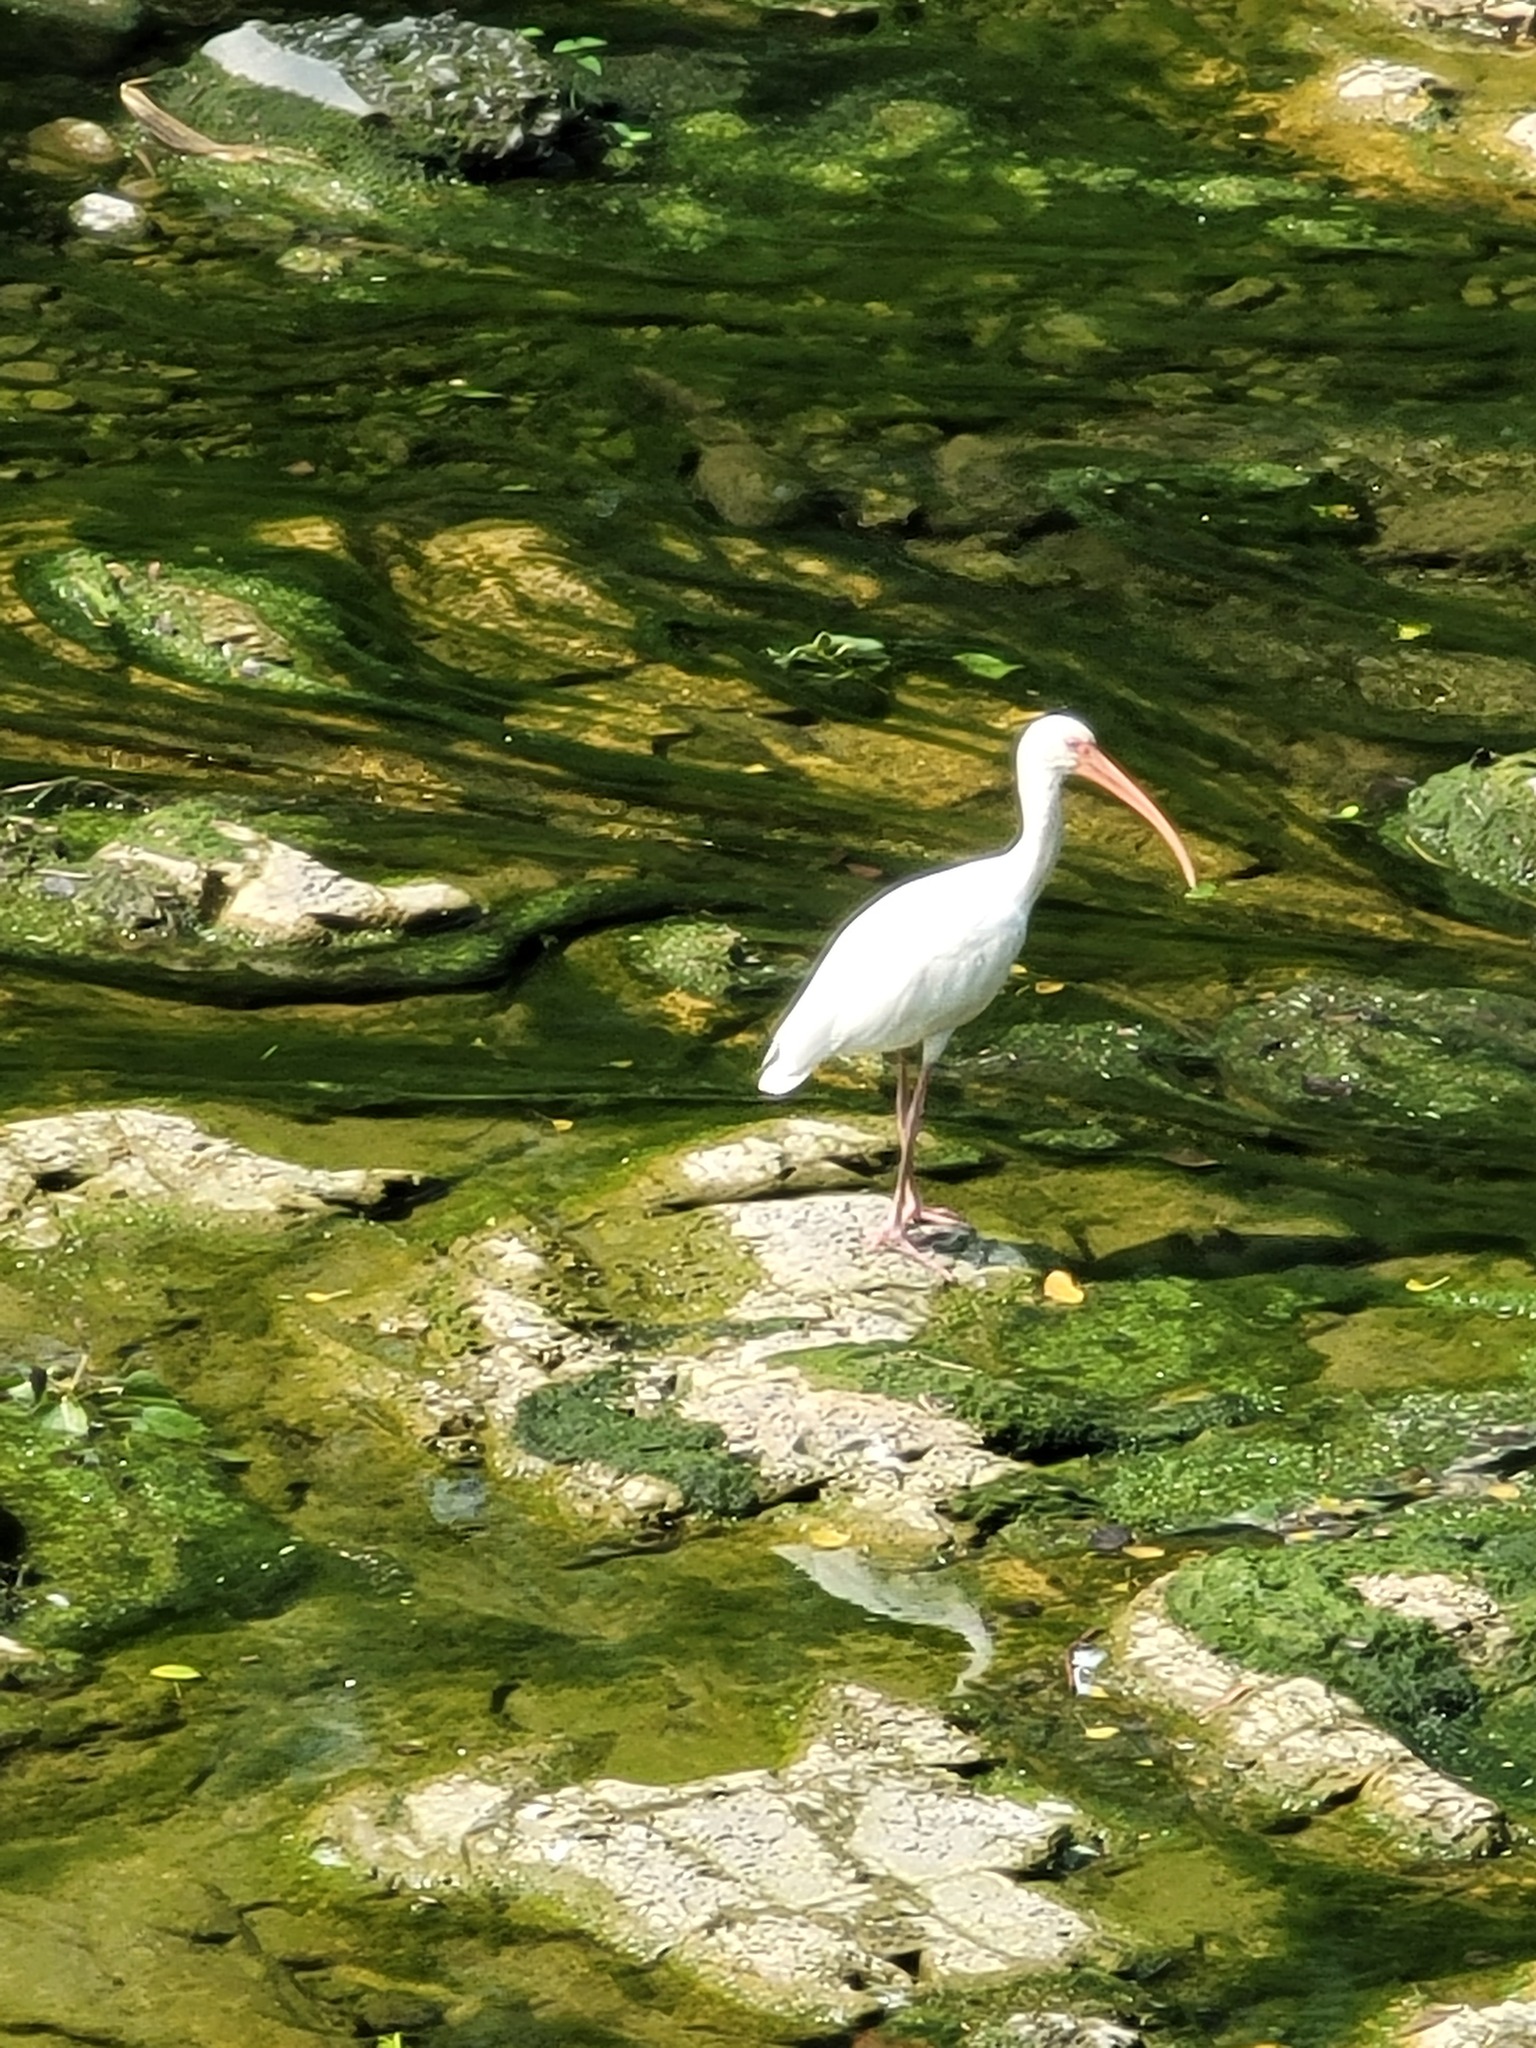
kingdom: Animalia
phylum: Chordata
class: Aves
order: Pelecaniformes
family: Threskiornithidae
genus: Eudocimus
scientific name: Eudocimus albus
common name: White ibis
